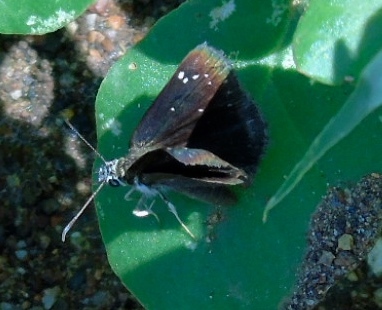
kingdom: Animalia
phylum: Arthropoda
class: Insecta
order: Lepidoptera
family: Hesperiidae
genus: Pholisora
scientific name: Pholisora catullus
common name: Common sootywing
